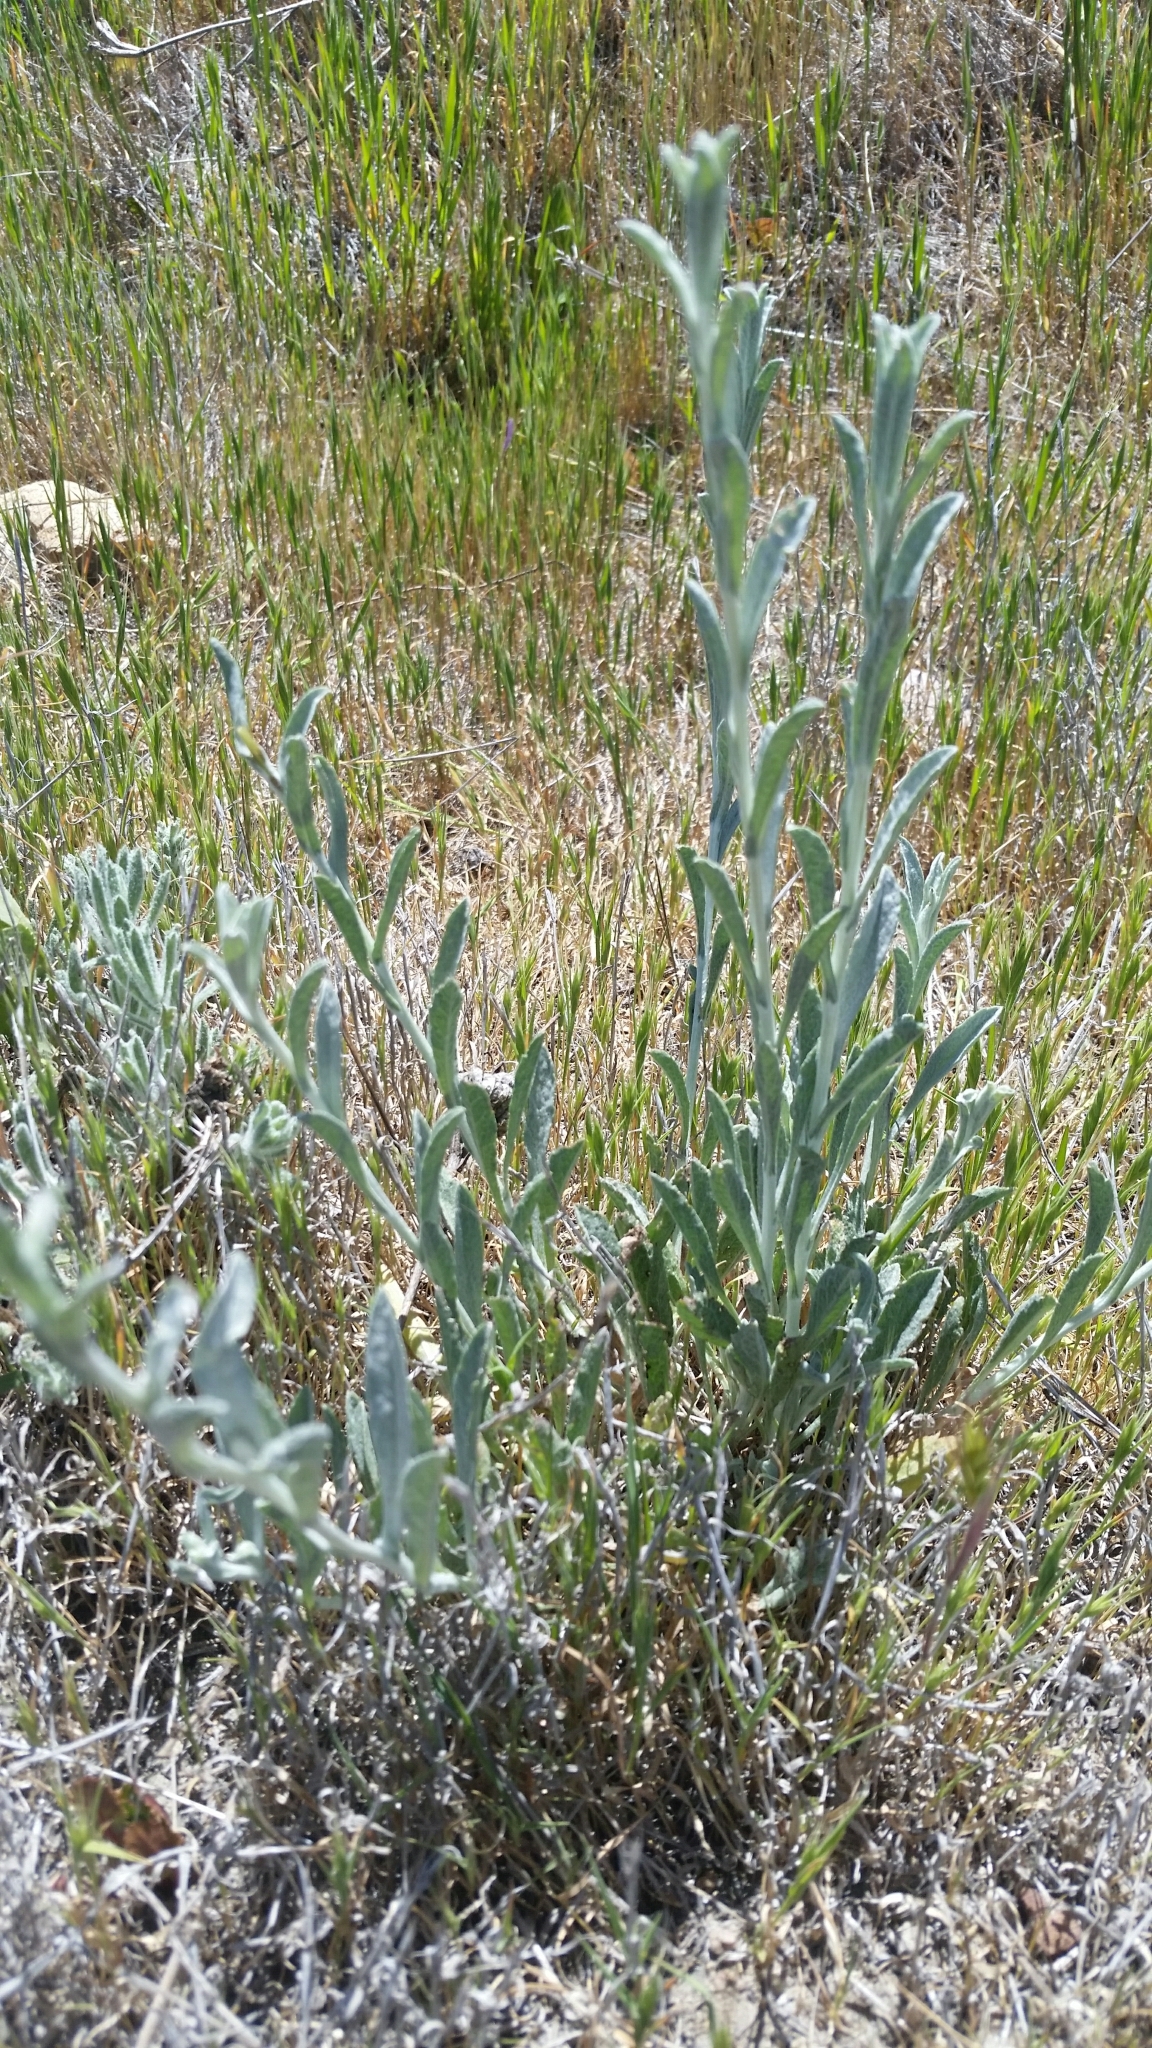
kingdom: Plantae
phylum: Tracheophyta
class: Magnoliopsida
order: Asterales
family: Asteraceae
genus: Corethrogyne
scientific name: Corethrogyne filaginifolia
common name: Sand-aster
